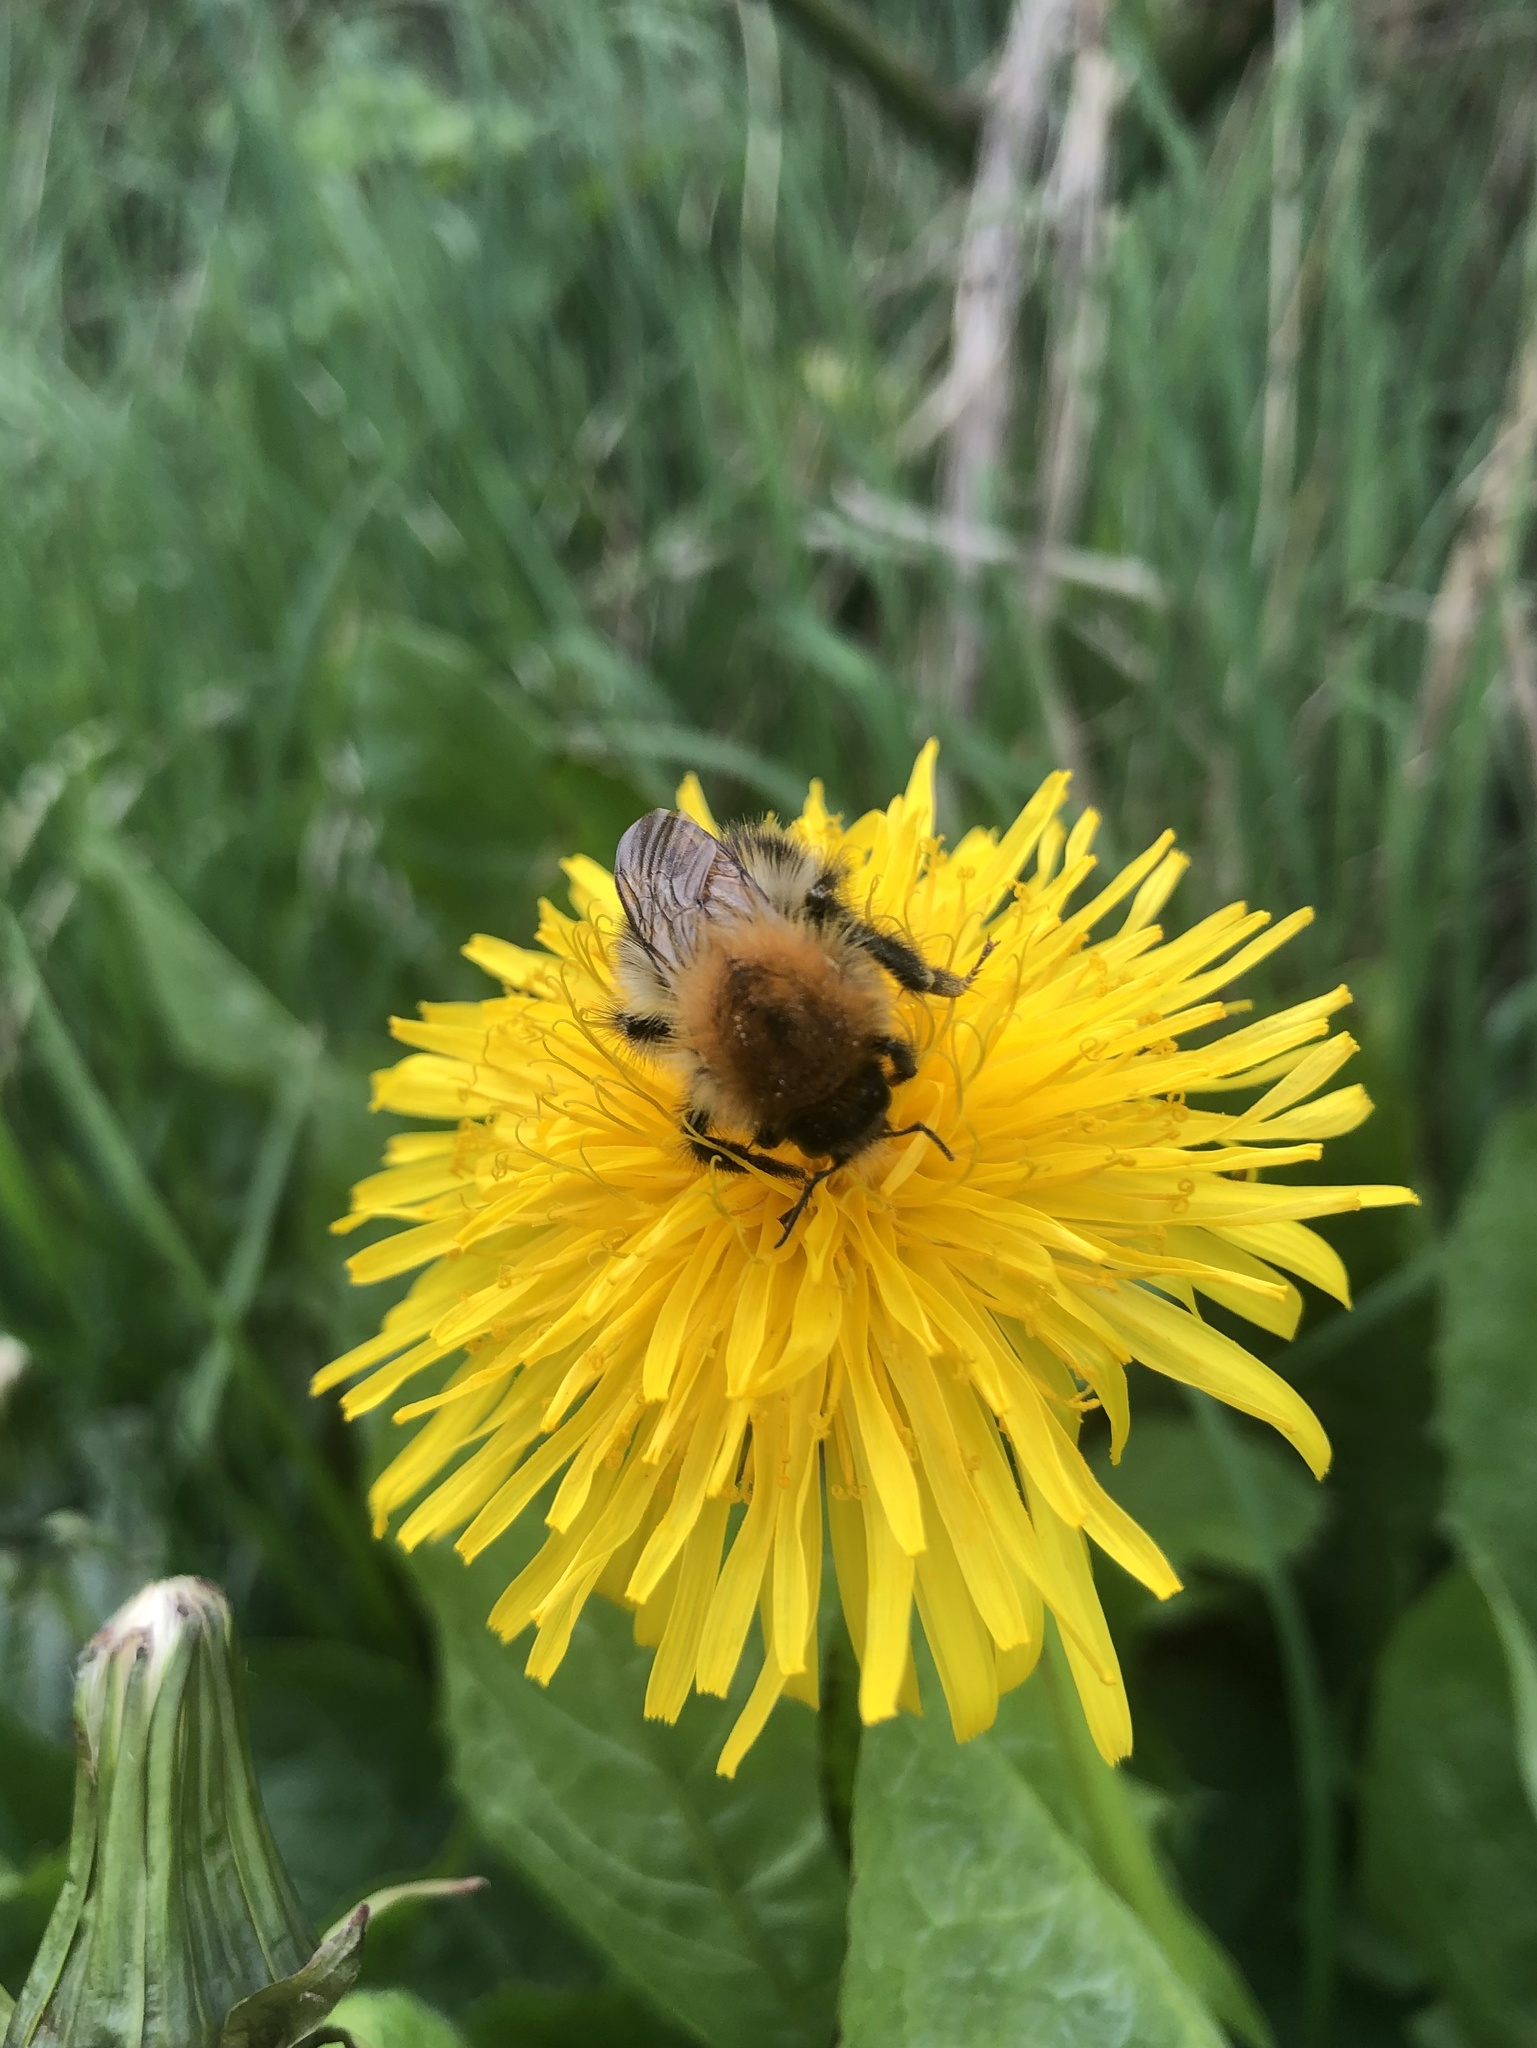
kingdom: Animalia
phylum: Arthropoda
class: Insecta
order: Hymenoptera
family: Apidae
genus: Bombus
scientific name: Bombus pascuorum
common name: Common carder bee
